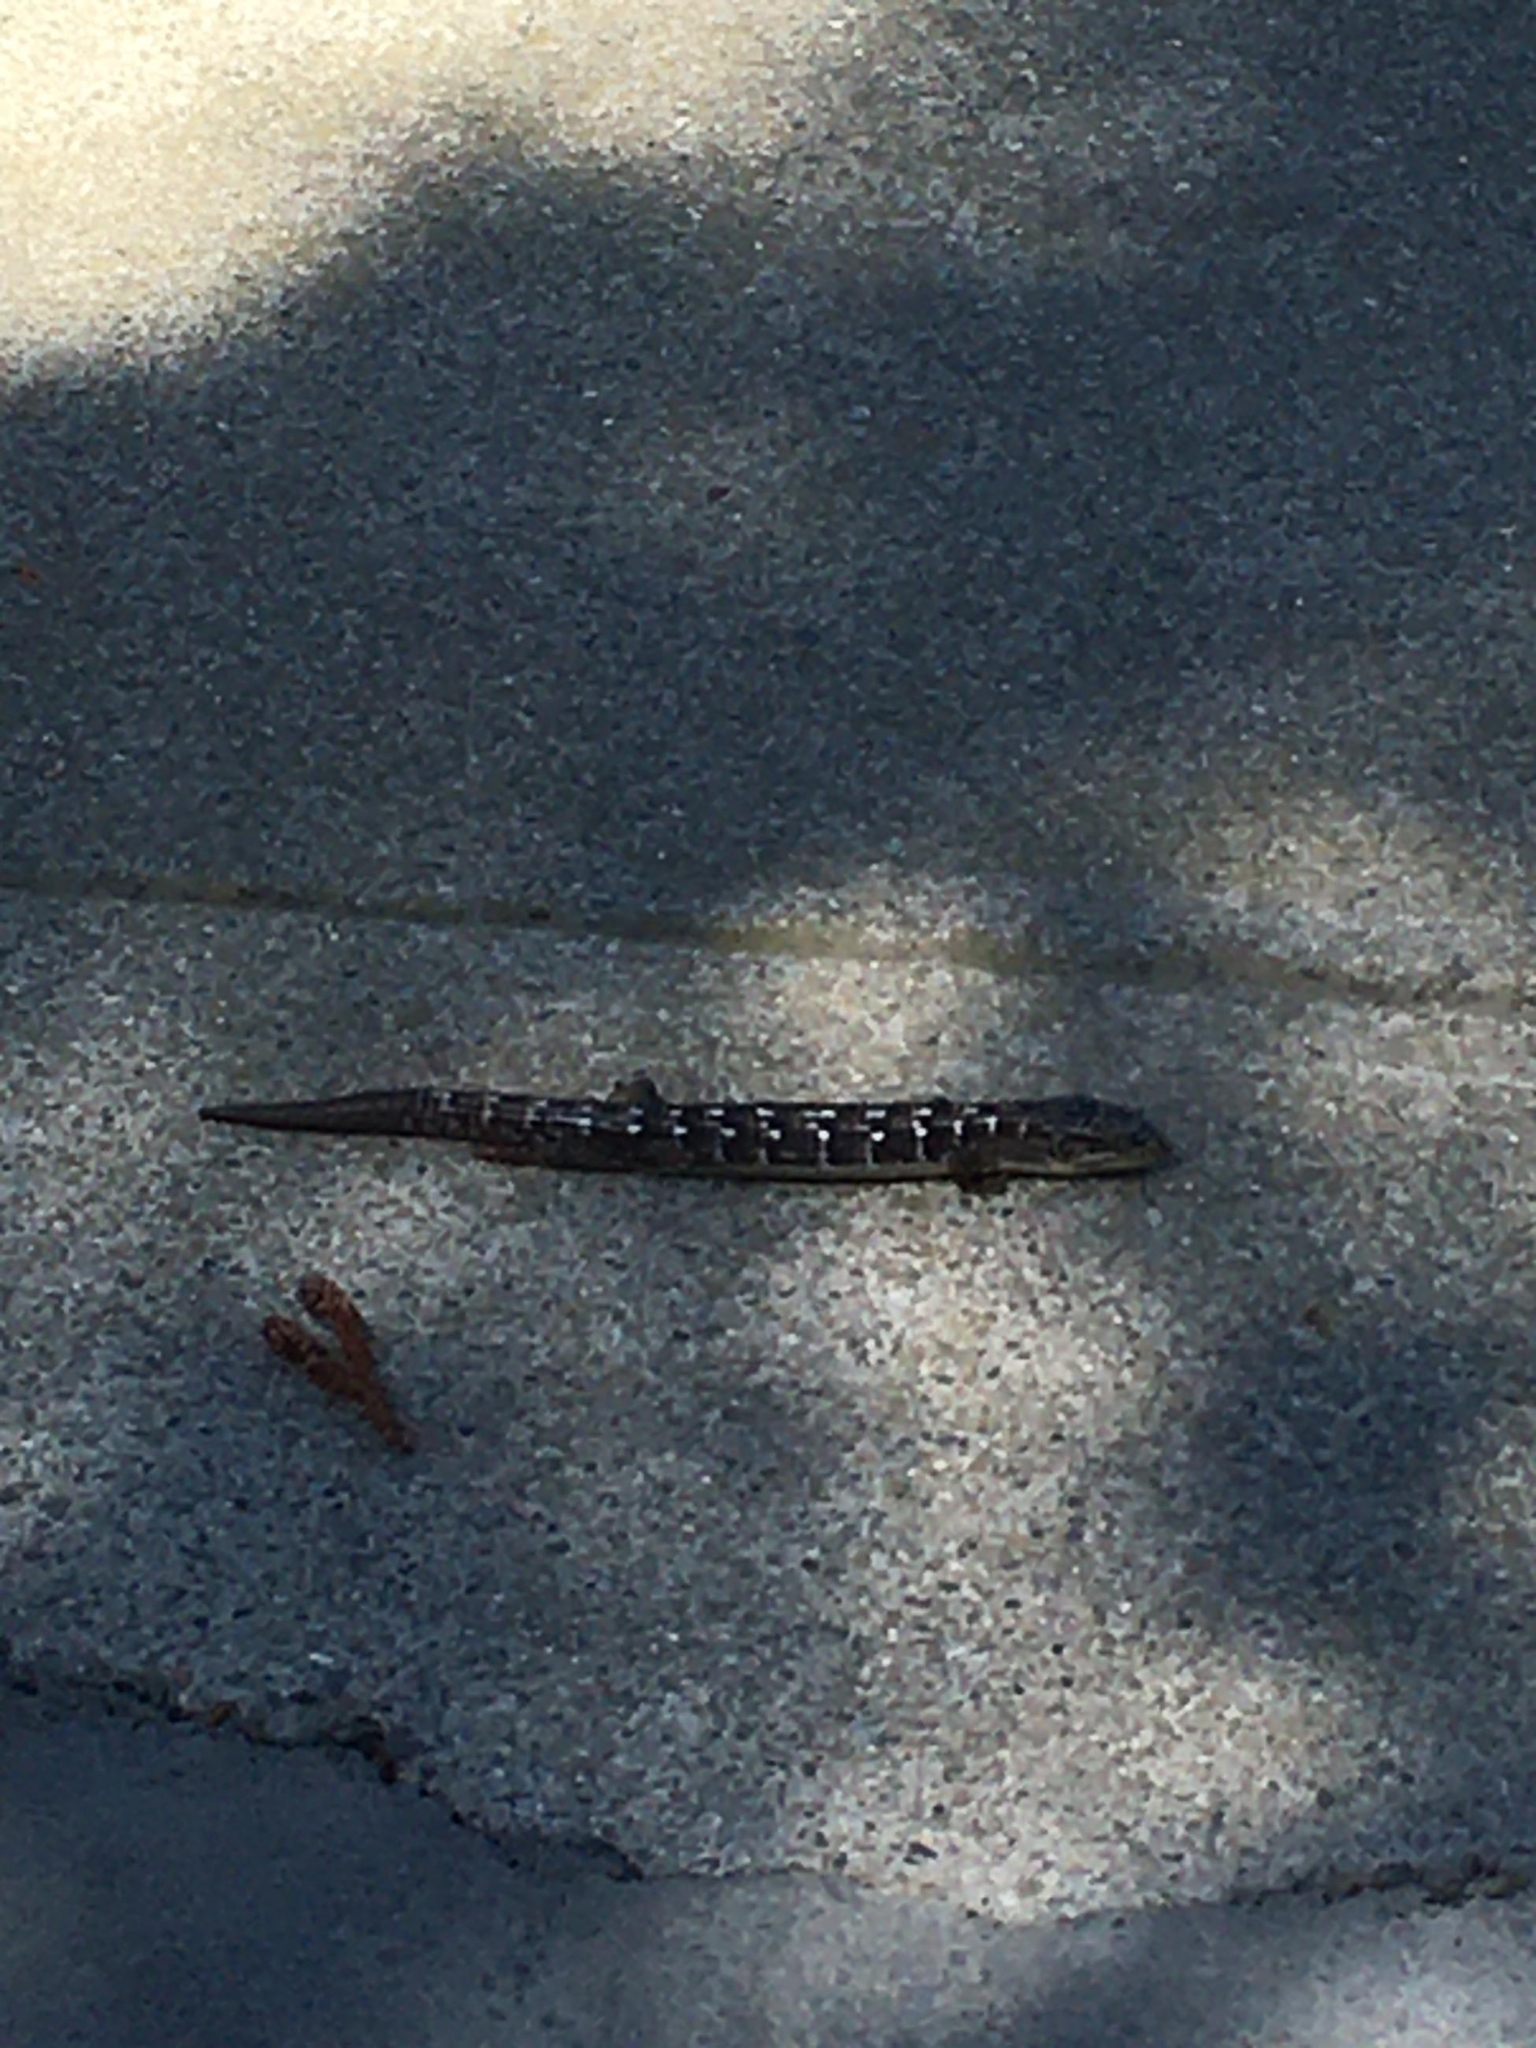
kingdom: Animalia
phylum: Chordata
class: Squamata
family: Anguidae
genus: Elgaria
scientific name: Elgaria multicarinata
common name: Southern alligator lizard
